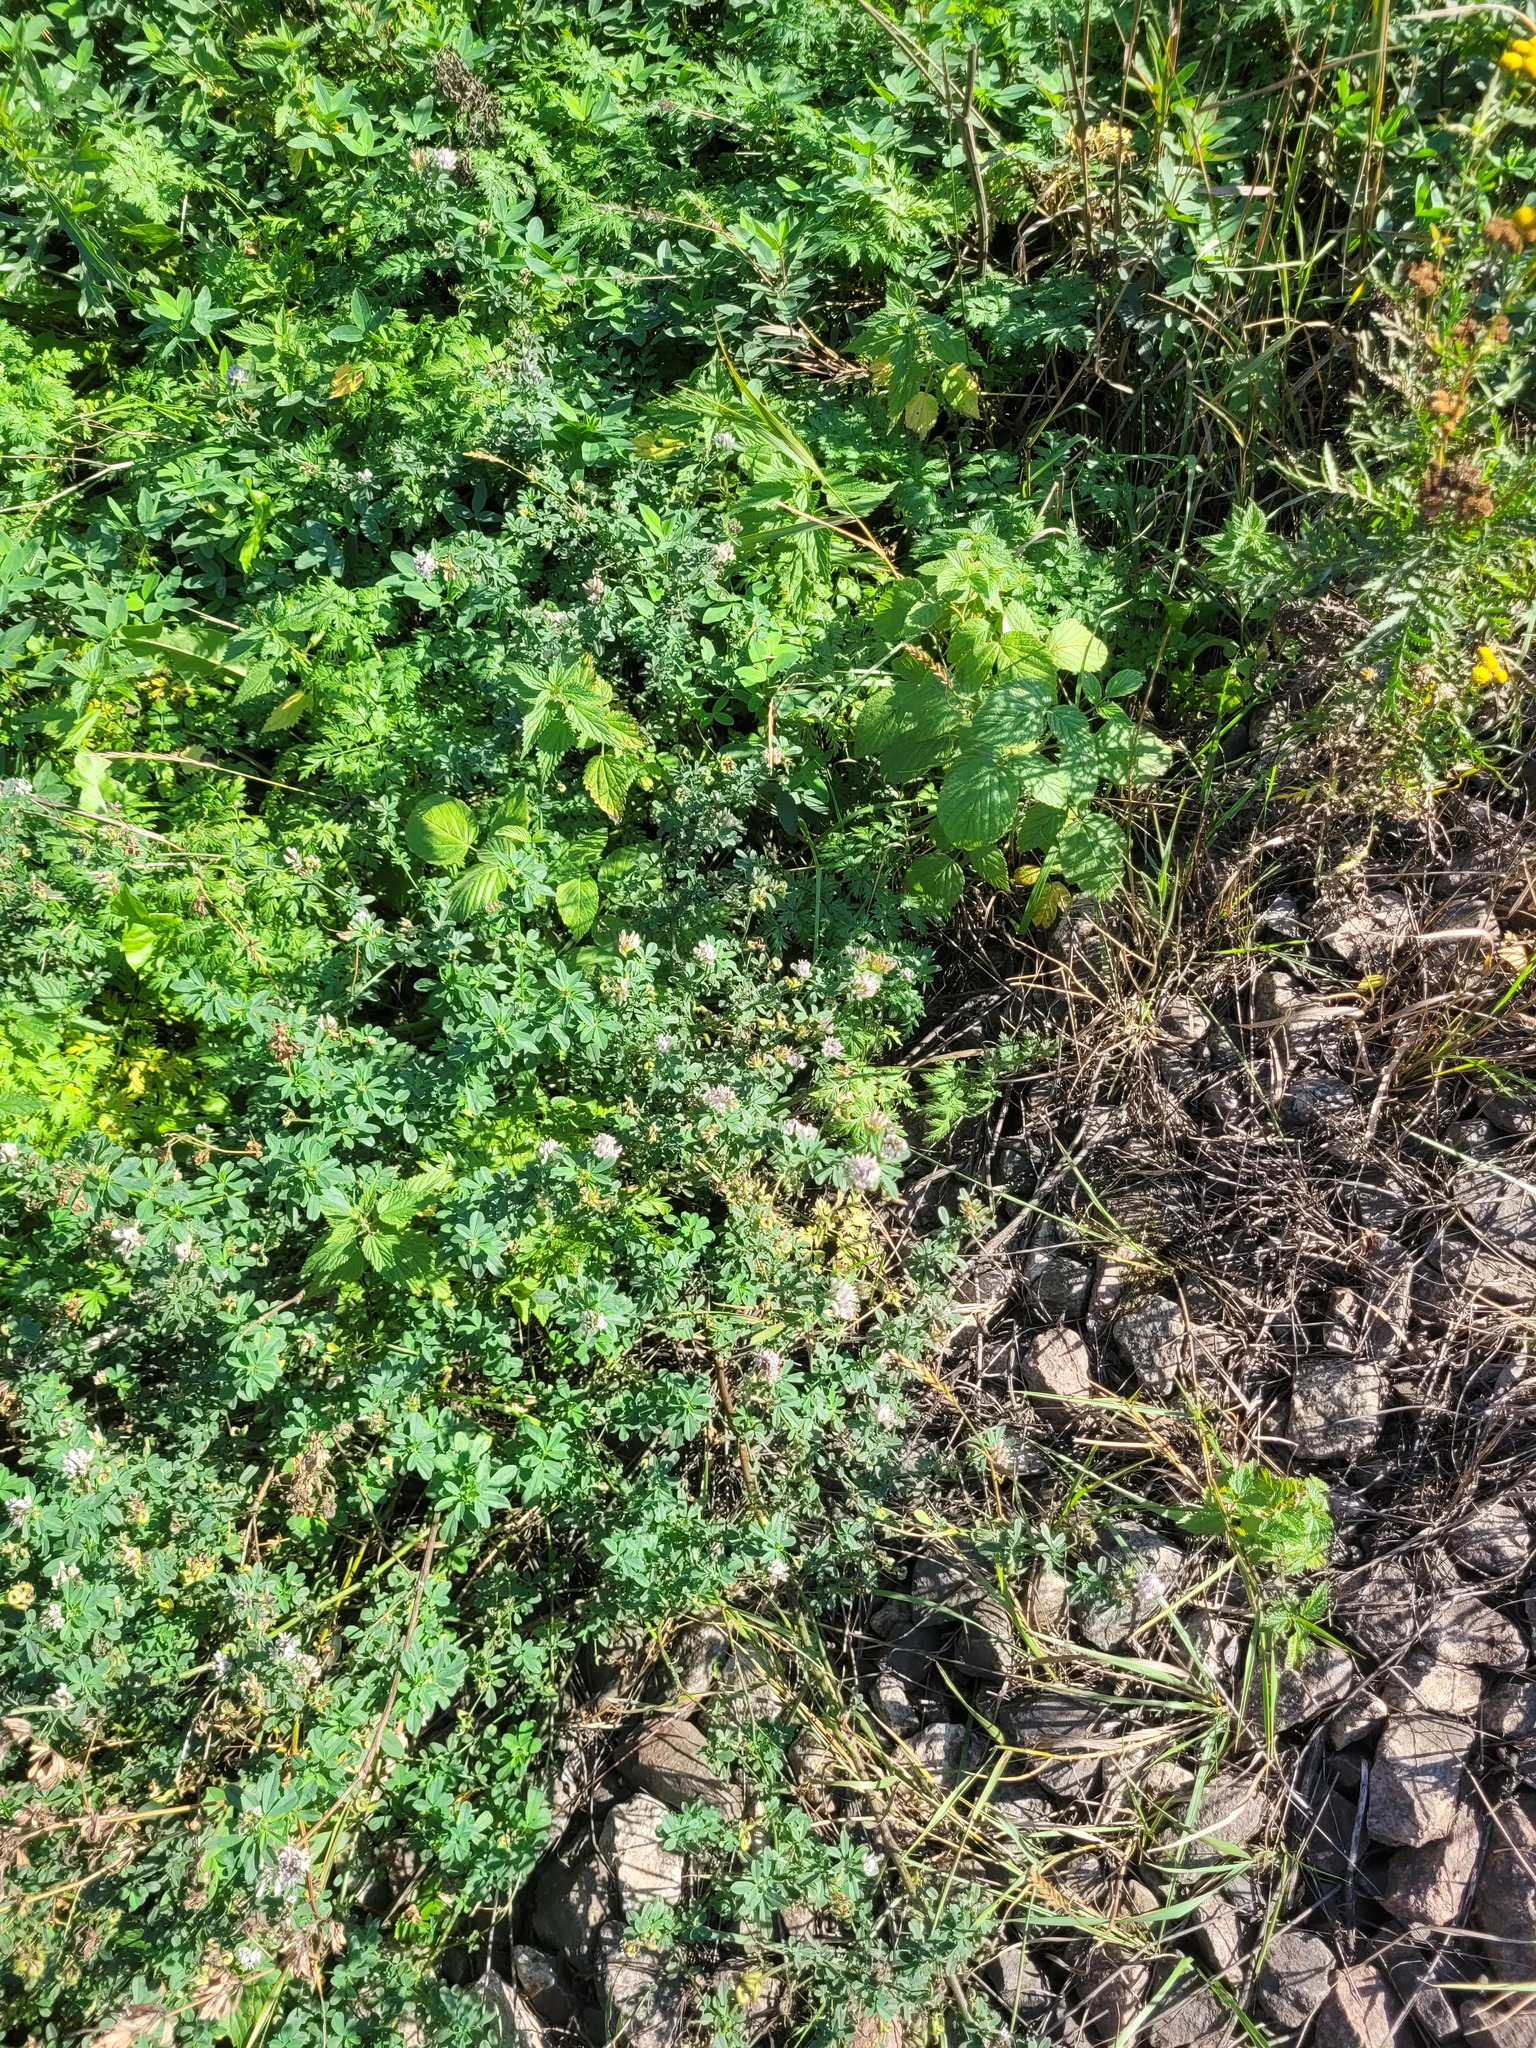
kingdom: Plantae
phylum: Tracheophyta
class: Magnoliopsida
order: Fabales
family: Fabaceae
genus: Medicago
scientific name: Medicago varia
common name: Sand lucerne
